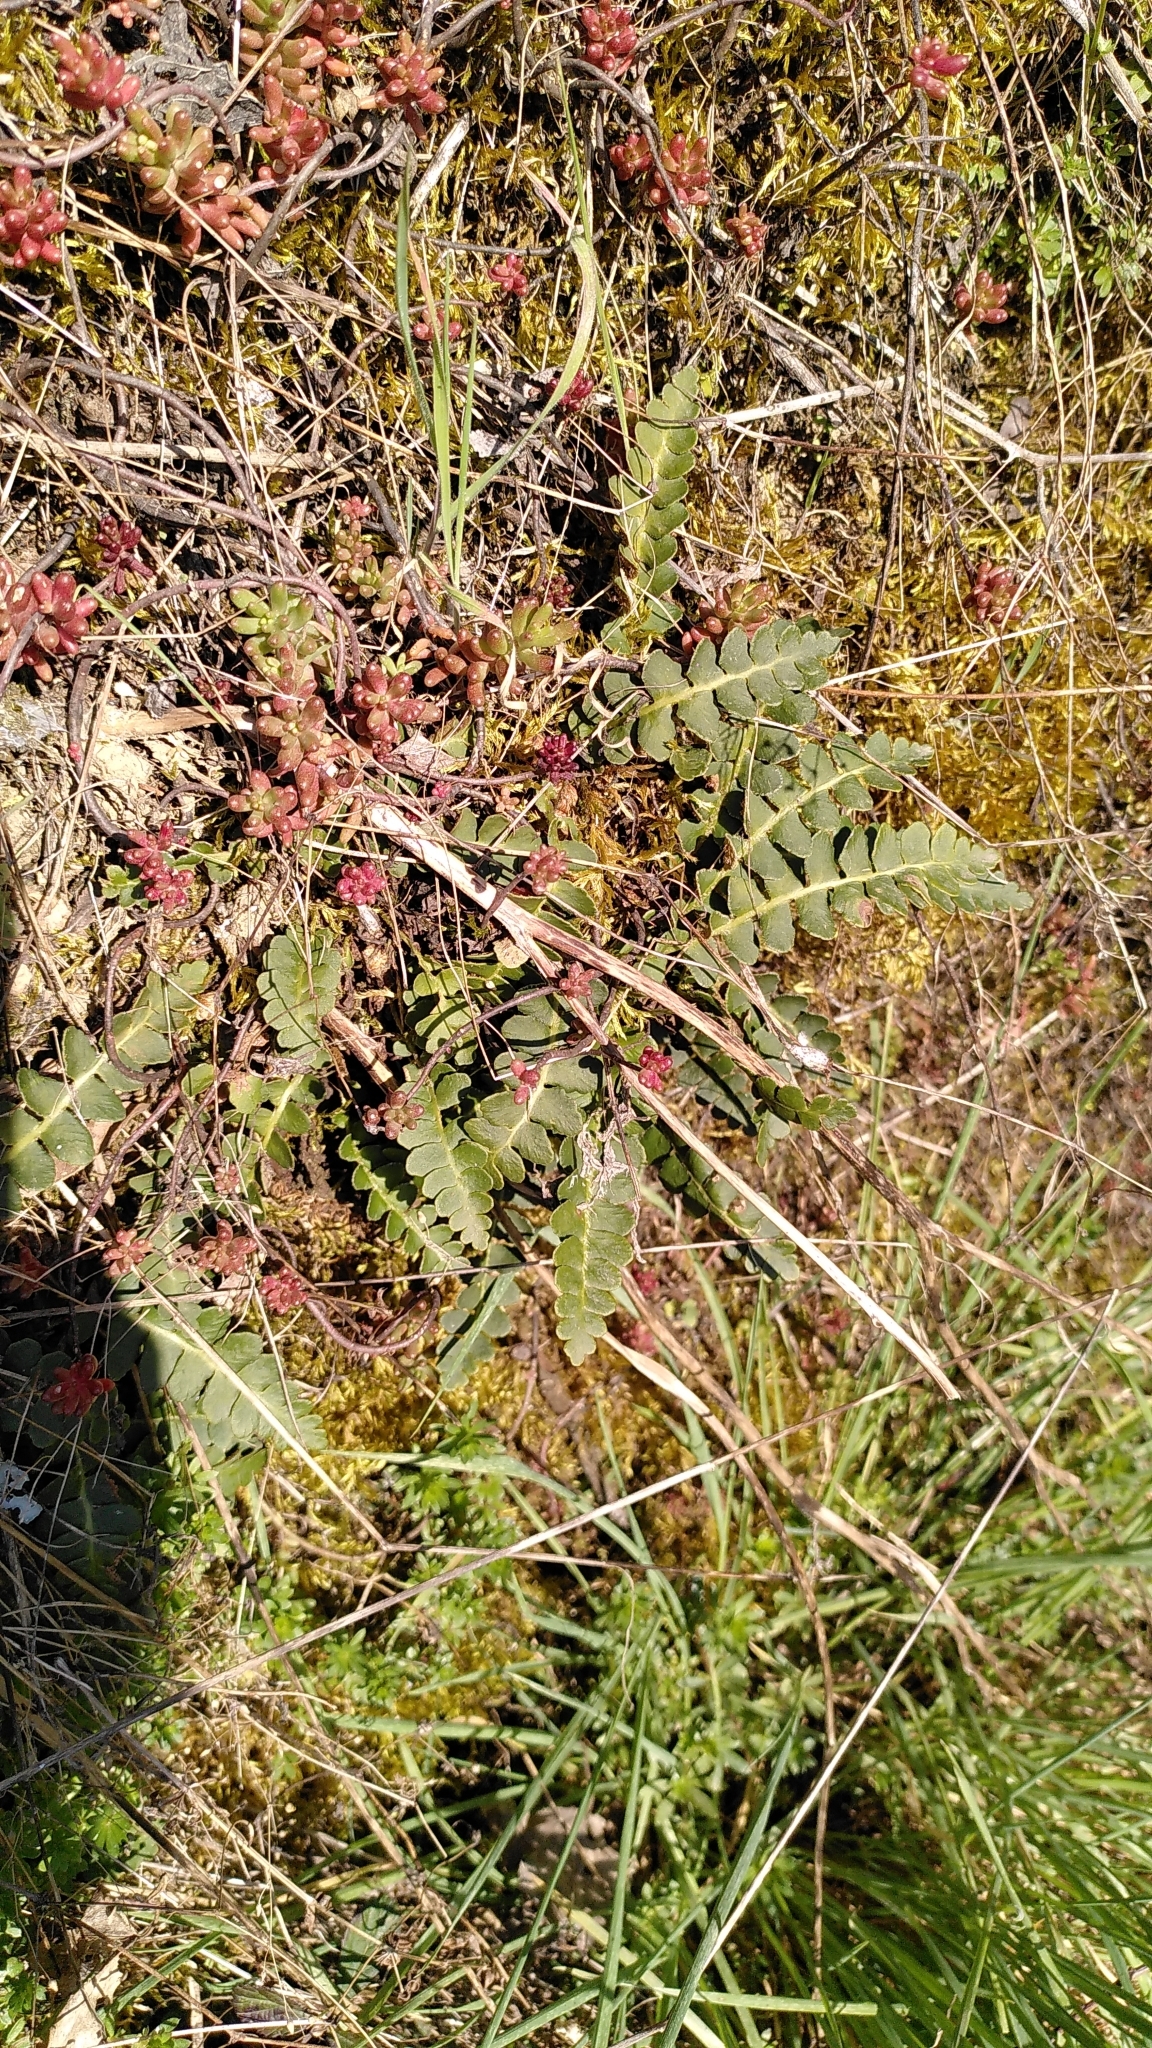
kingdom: Plantae
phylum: Tracheophyta
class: Polypodiopsida
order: Polypodiales
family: Aspleniaceae
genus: Asplenium
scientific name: Asplenium ceterach
